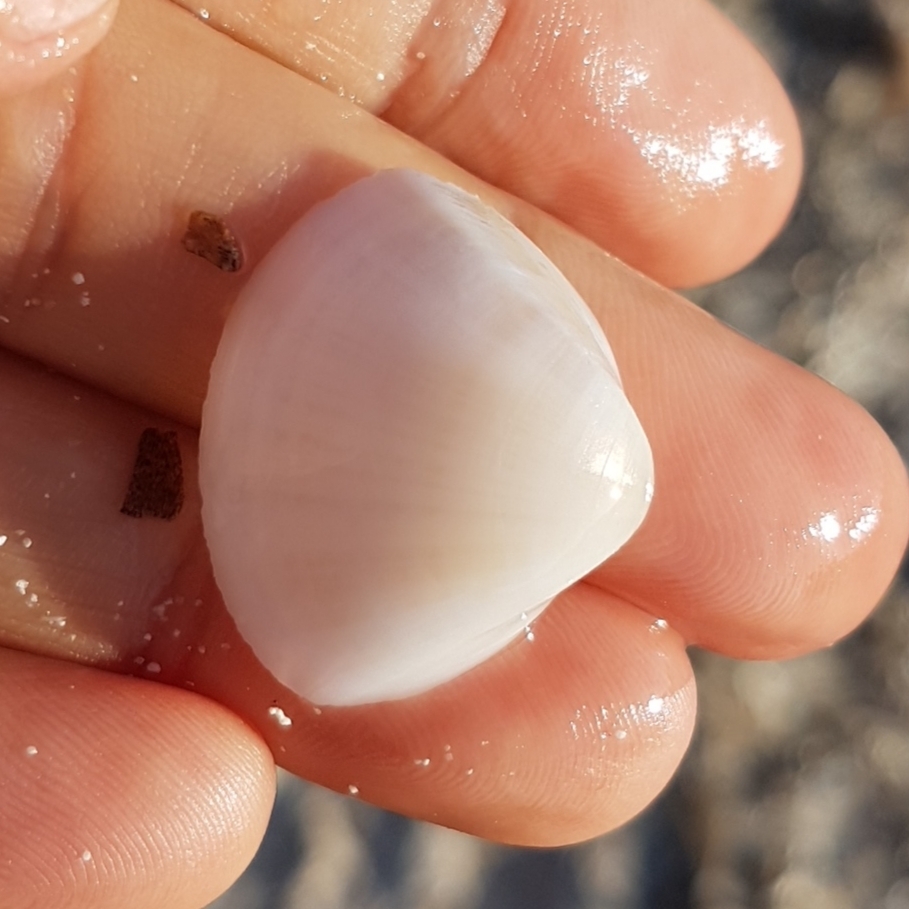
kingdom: Animalia
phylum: Mollusca
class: Bivalvia
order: Venerida
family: Mactridae
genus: Mactra
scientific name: Mactra stultorum
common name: Rayed trough shell
